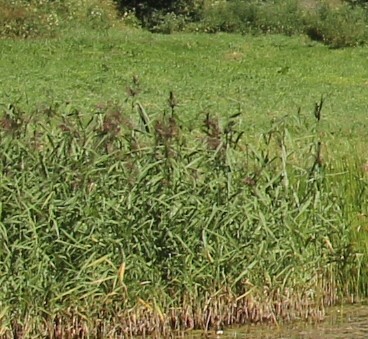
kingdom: Plantae
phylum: Tracheophyta
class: Liliopsida
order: Poales
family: Poaceae
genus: Phragmites
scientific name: Phragmites australis
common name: Common reed
